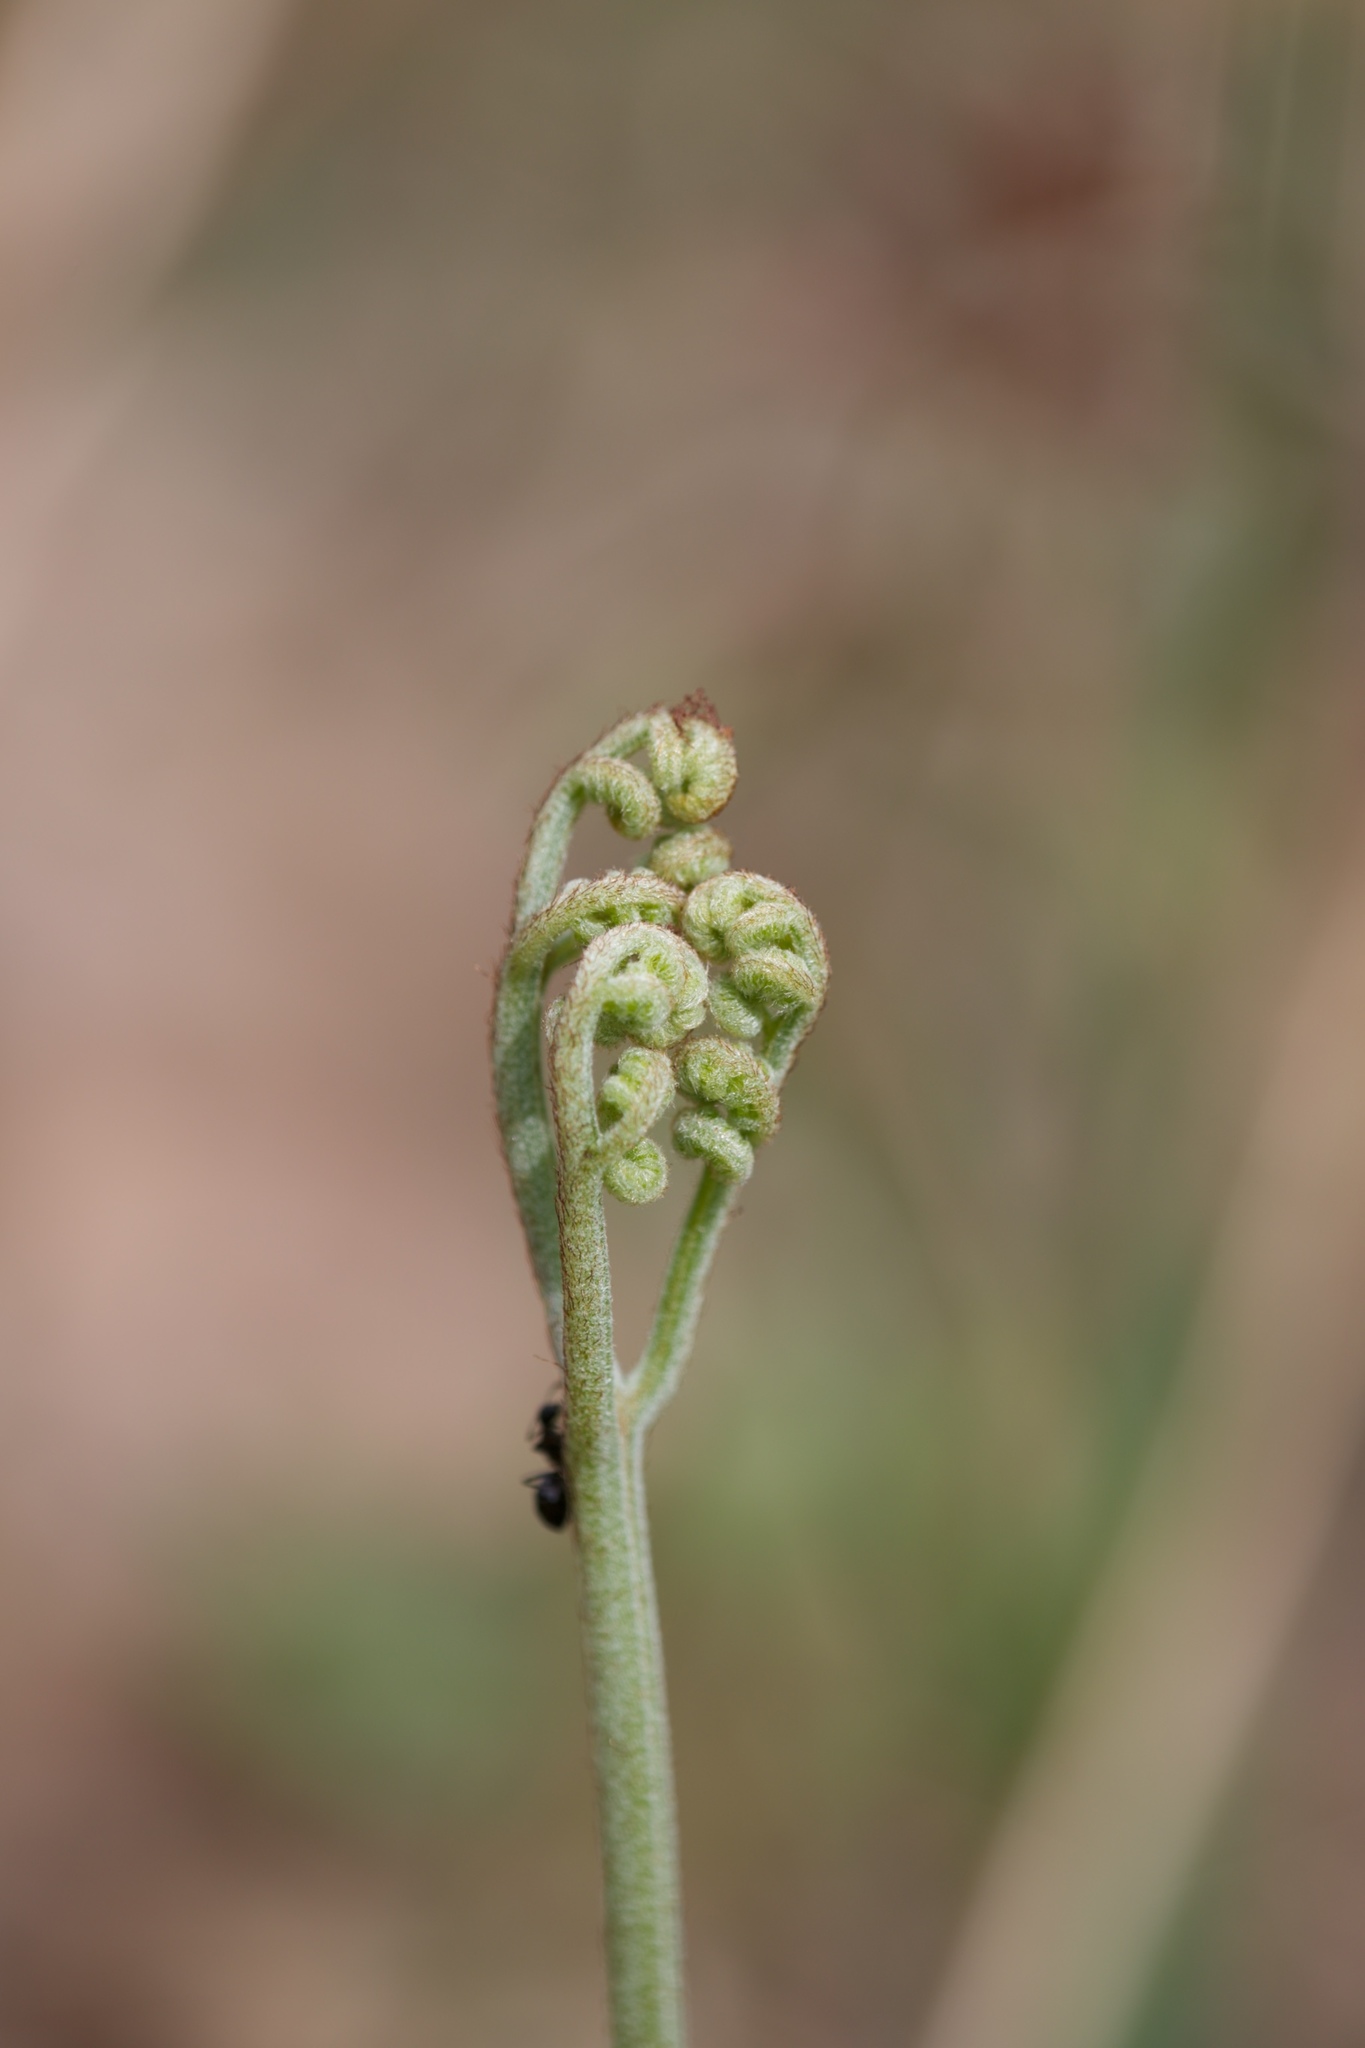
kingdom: Plantae
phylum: Tracheophyta
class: Polypodiopsida
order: Polypodiales
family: Dennstaedtiaceae
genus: Pteridium
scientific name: Pteridium aquilinum
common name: Bracken
